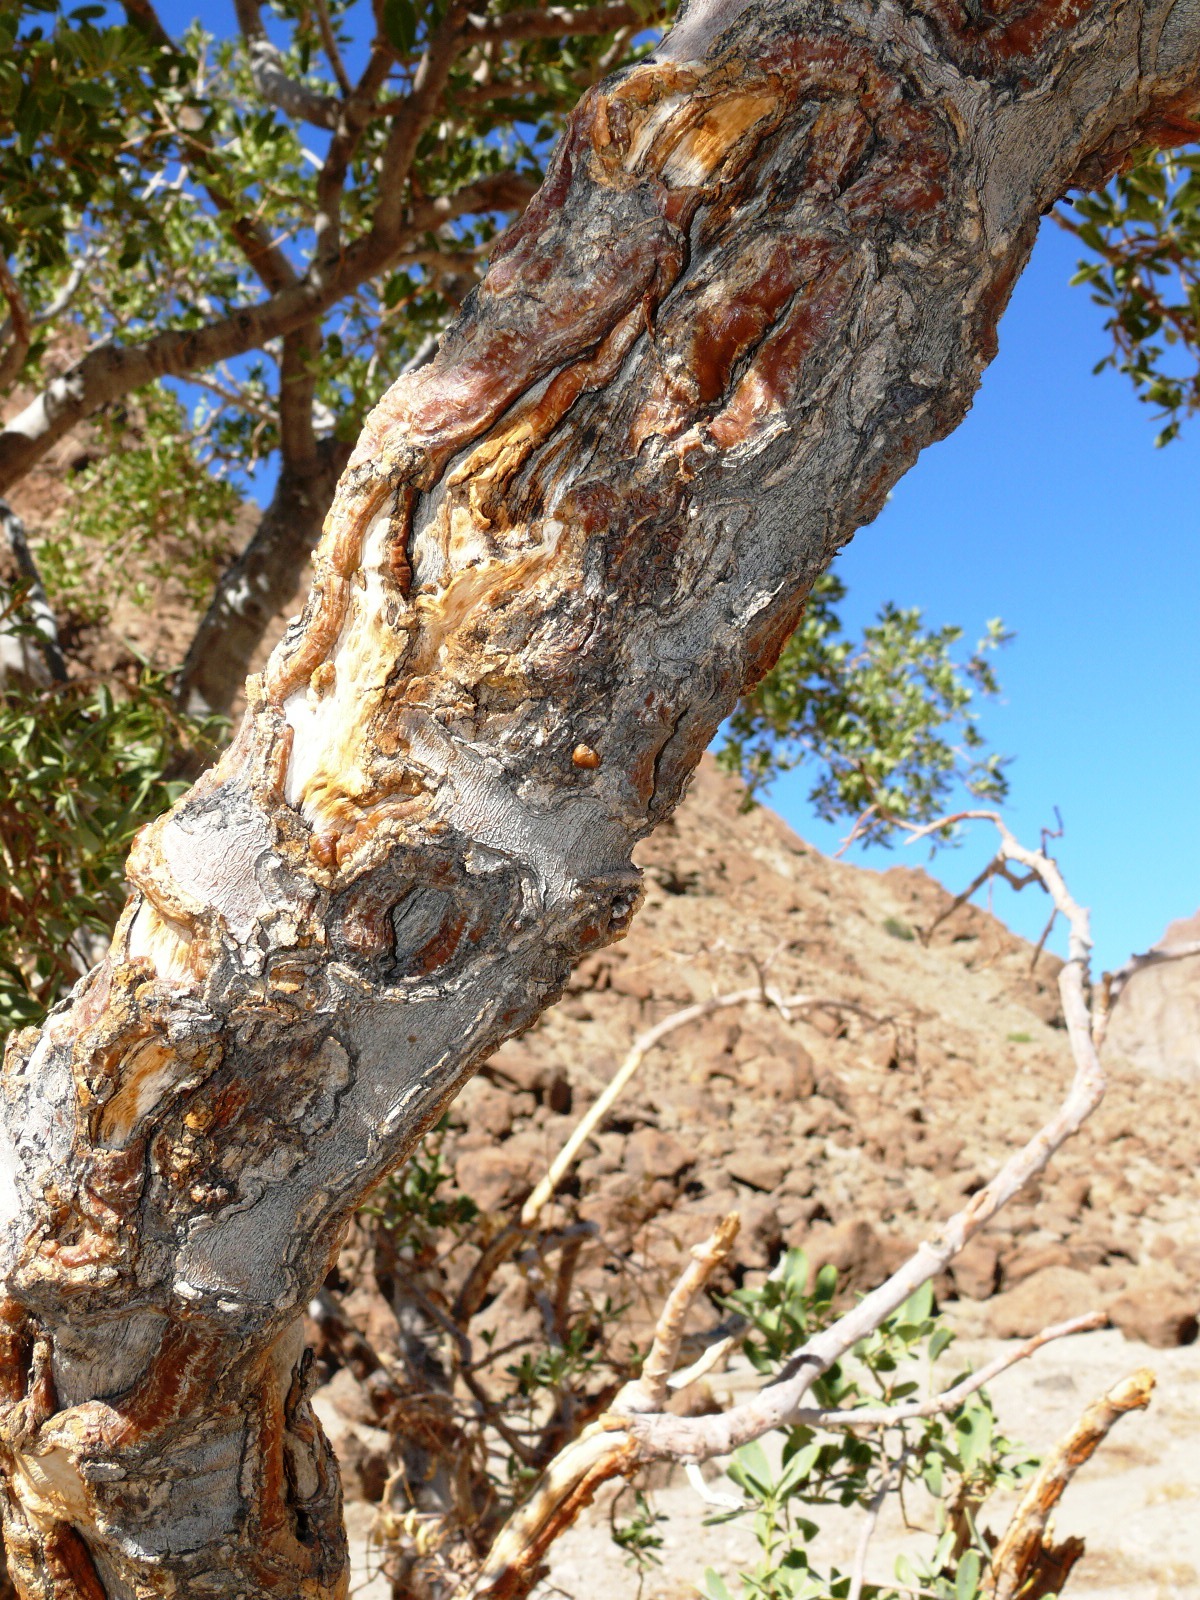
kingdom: Plantae
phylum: Tracheophyta
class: Magnoliopsida
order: Brassicales
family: Capparaceae
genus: Maerua
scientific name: Maerua schinzii
